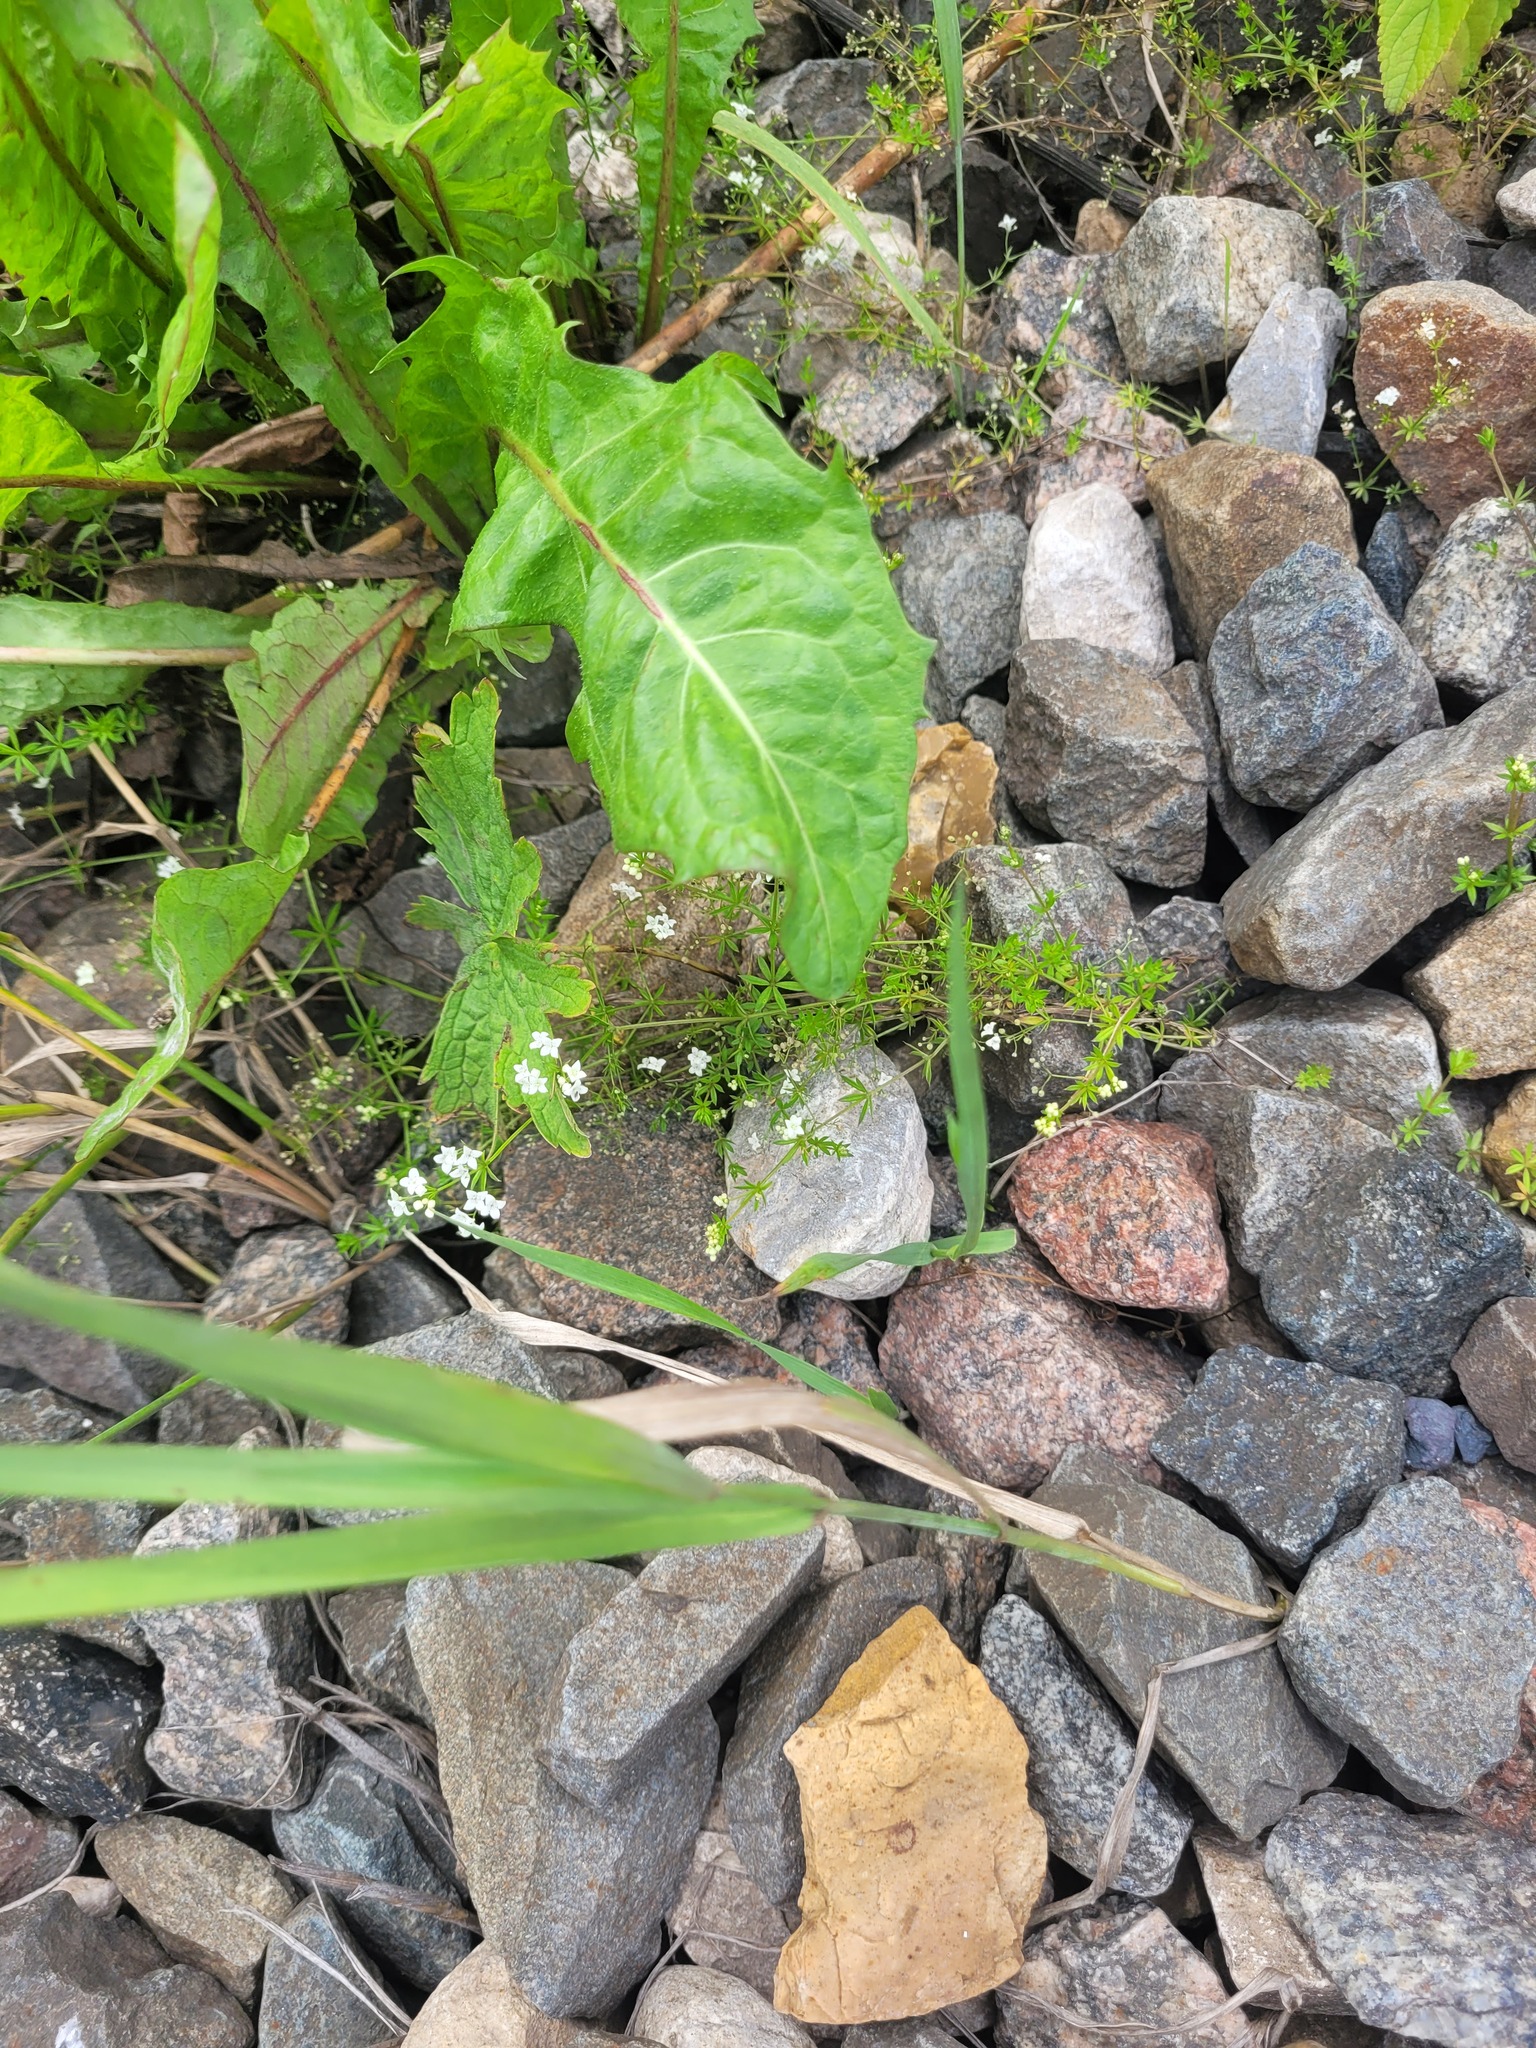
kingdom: Plantae
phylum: Tracheophyta
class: Magnoliopsida
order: Gentianales
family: Rubiaceae
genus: Galium
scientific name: Galium uliginosum
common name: Fen bedstraw
